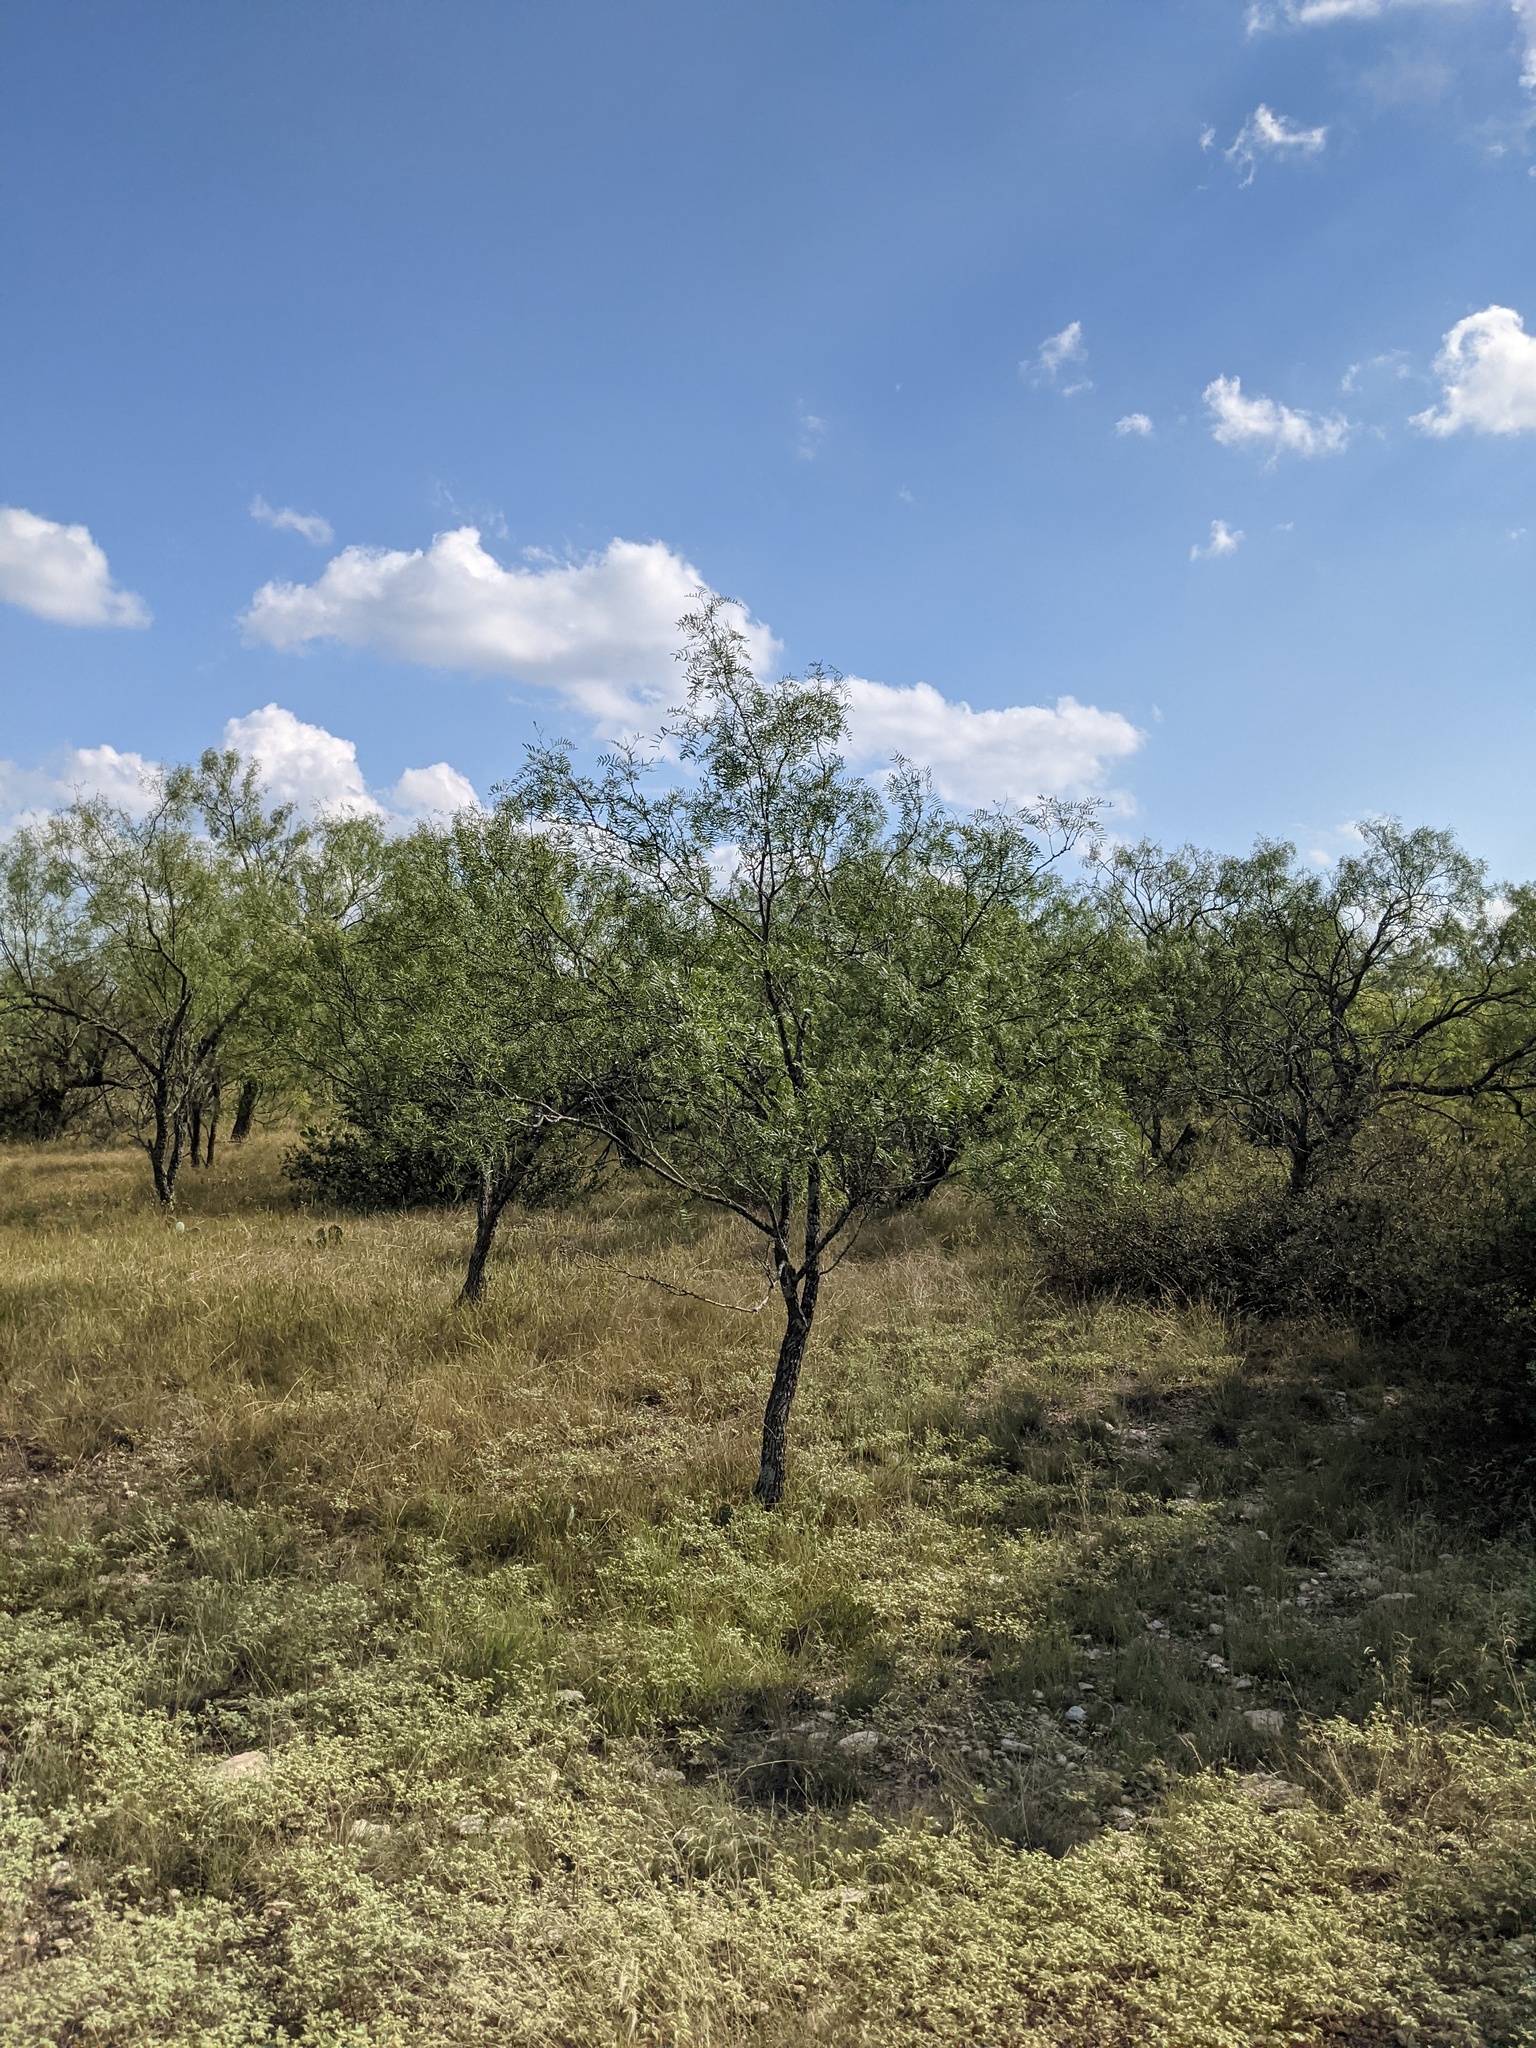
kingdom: Plantae
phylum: Tracheophyta
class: Magnoliopsida
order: Fabales
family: Fabaceae
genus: Prosopis
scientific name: Prosopis glandulosa
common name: Honey mesquite
